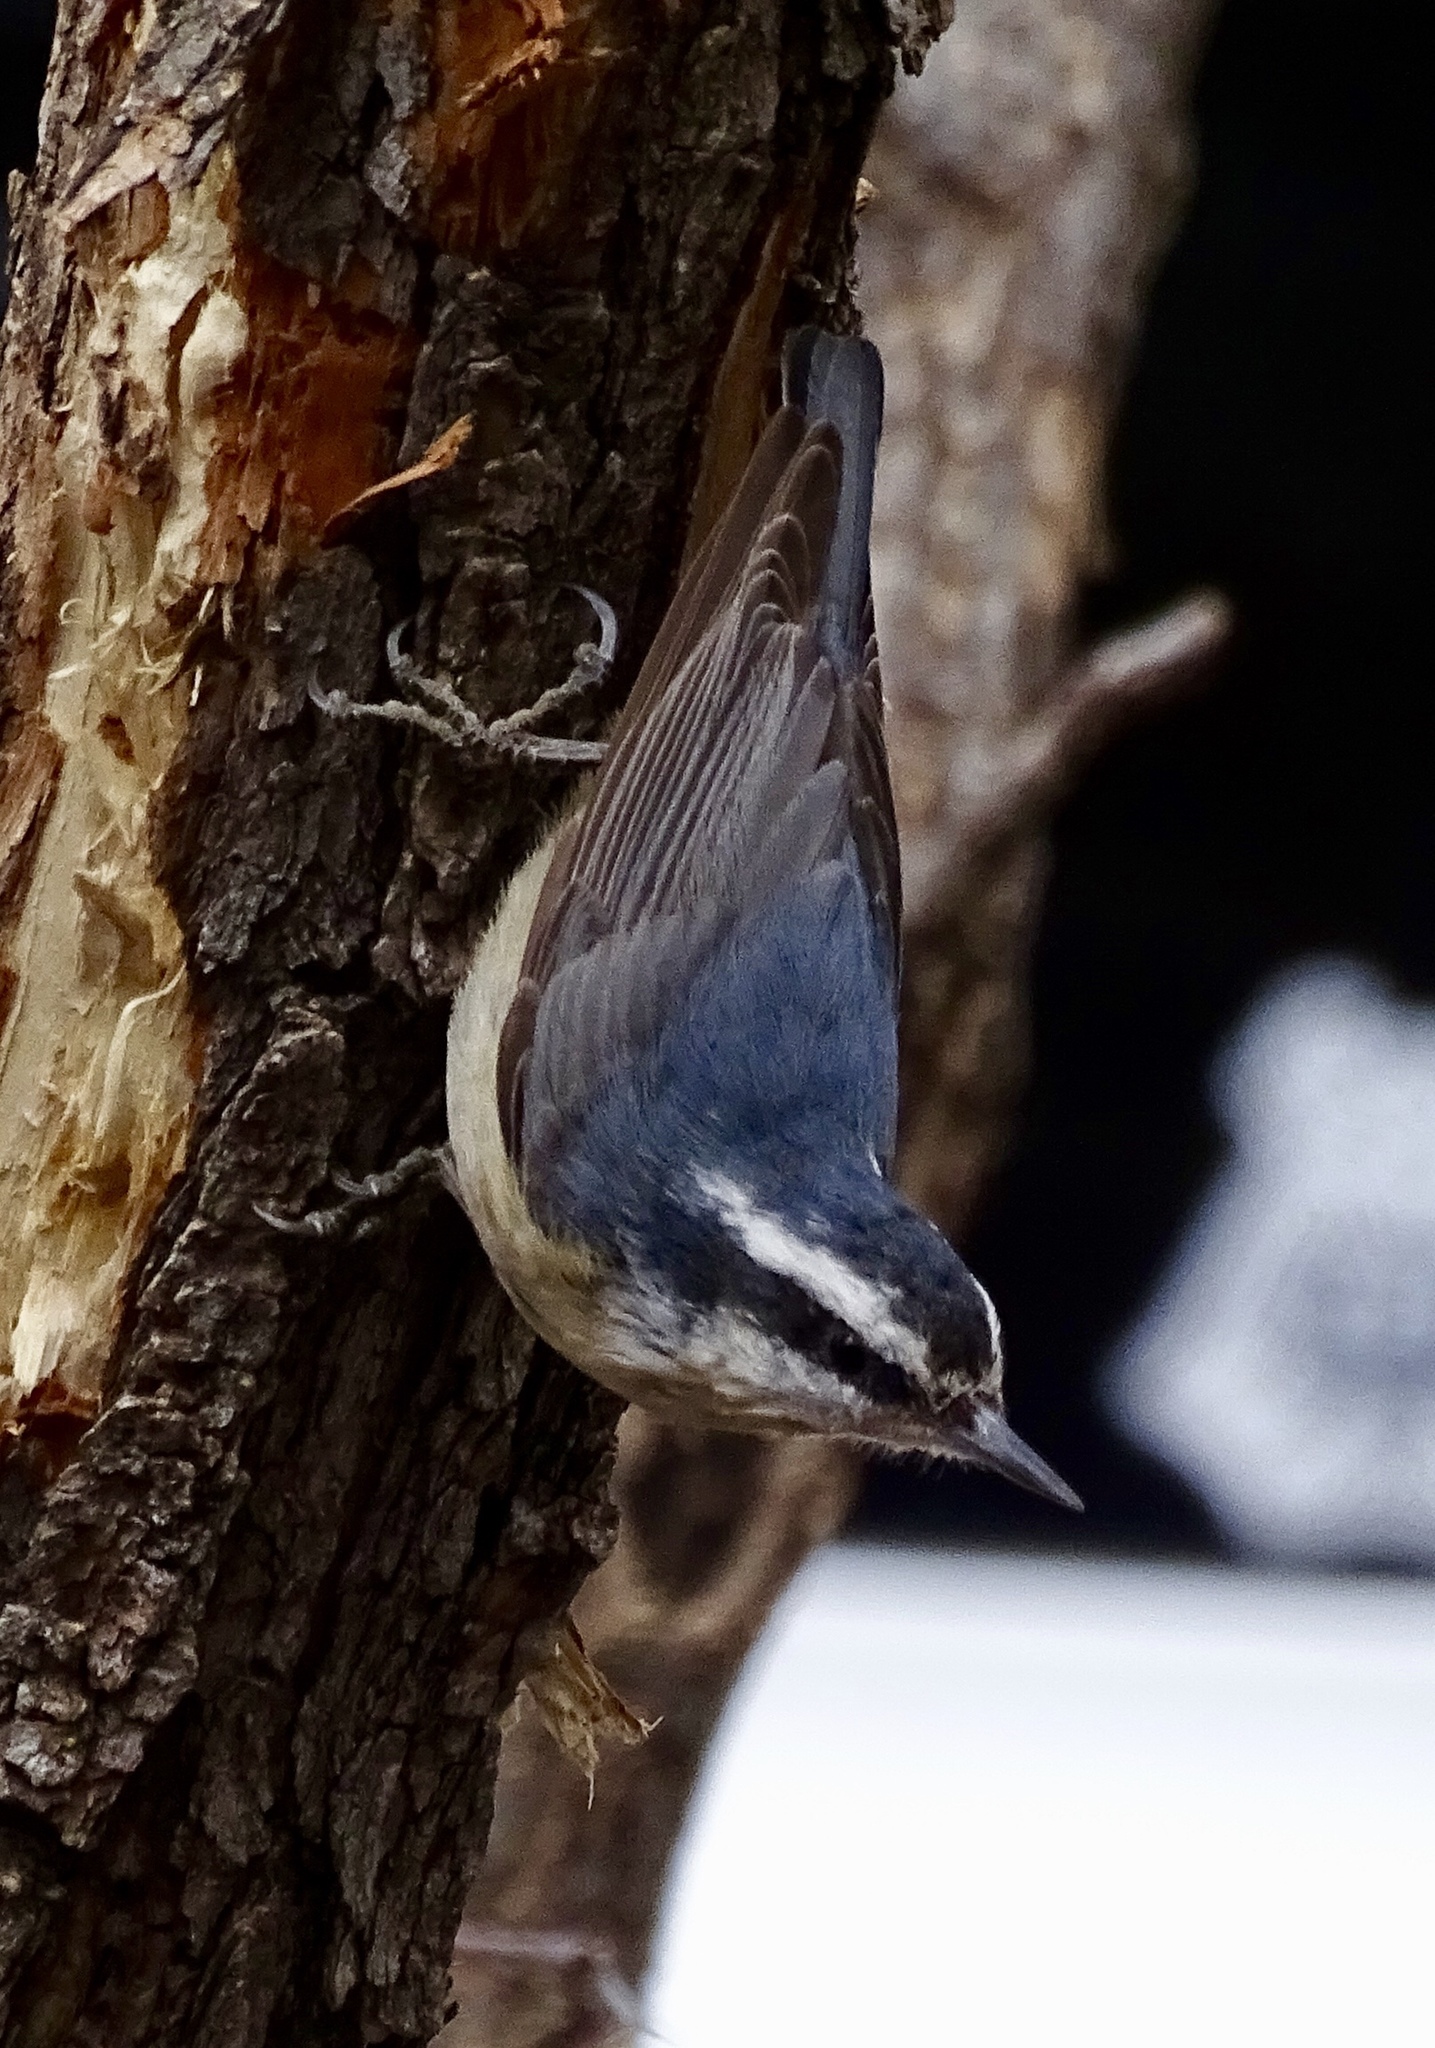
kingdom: Animalia
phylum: Chordata
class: Aves
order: Passeriformes
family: Sittidae
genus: Sitta
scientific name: Sitta canadensis
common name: Red-breasted nuthatch
